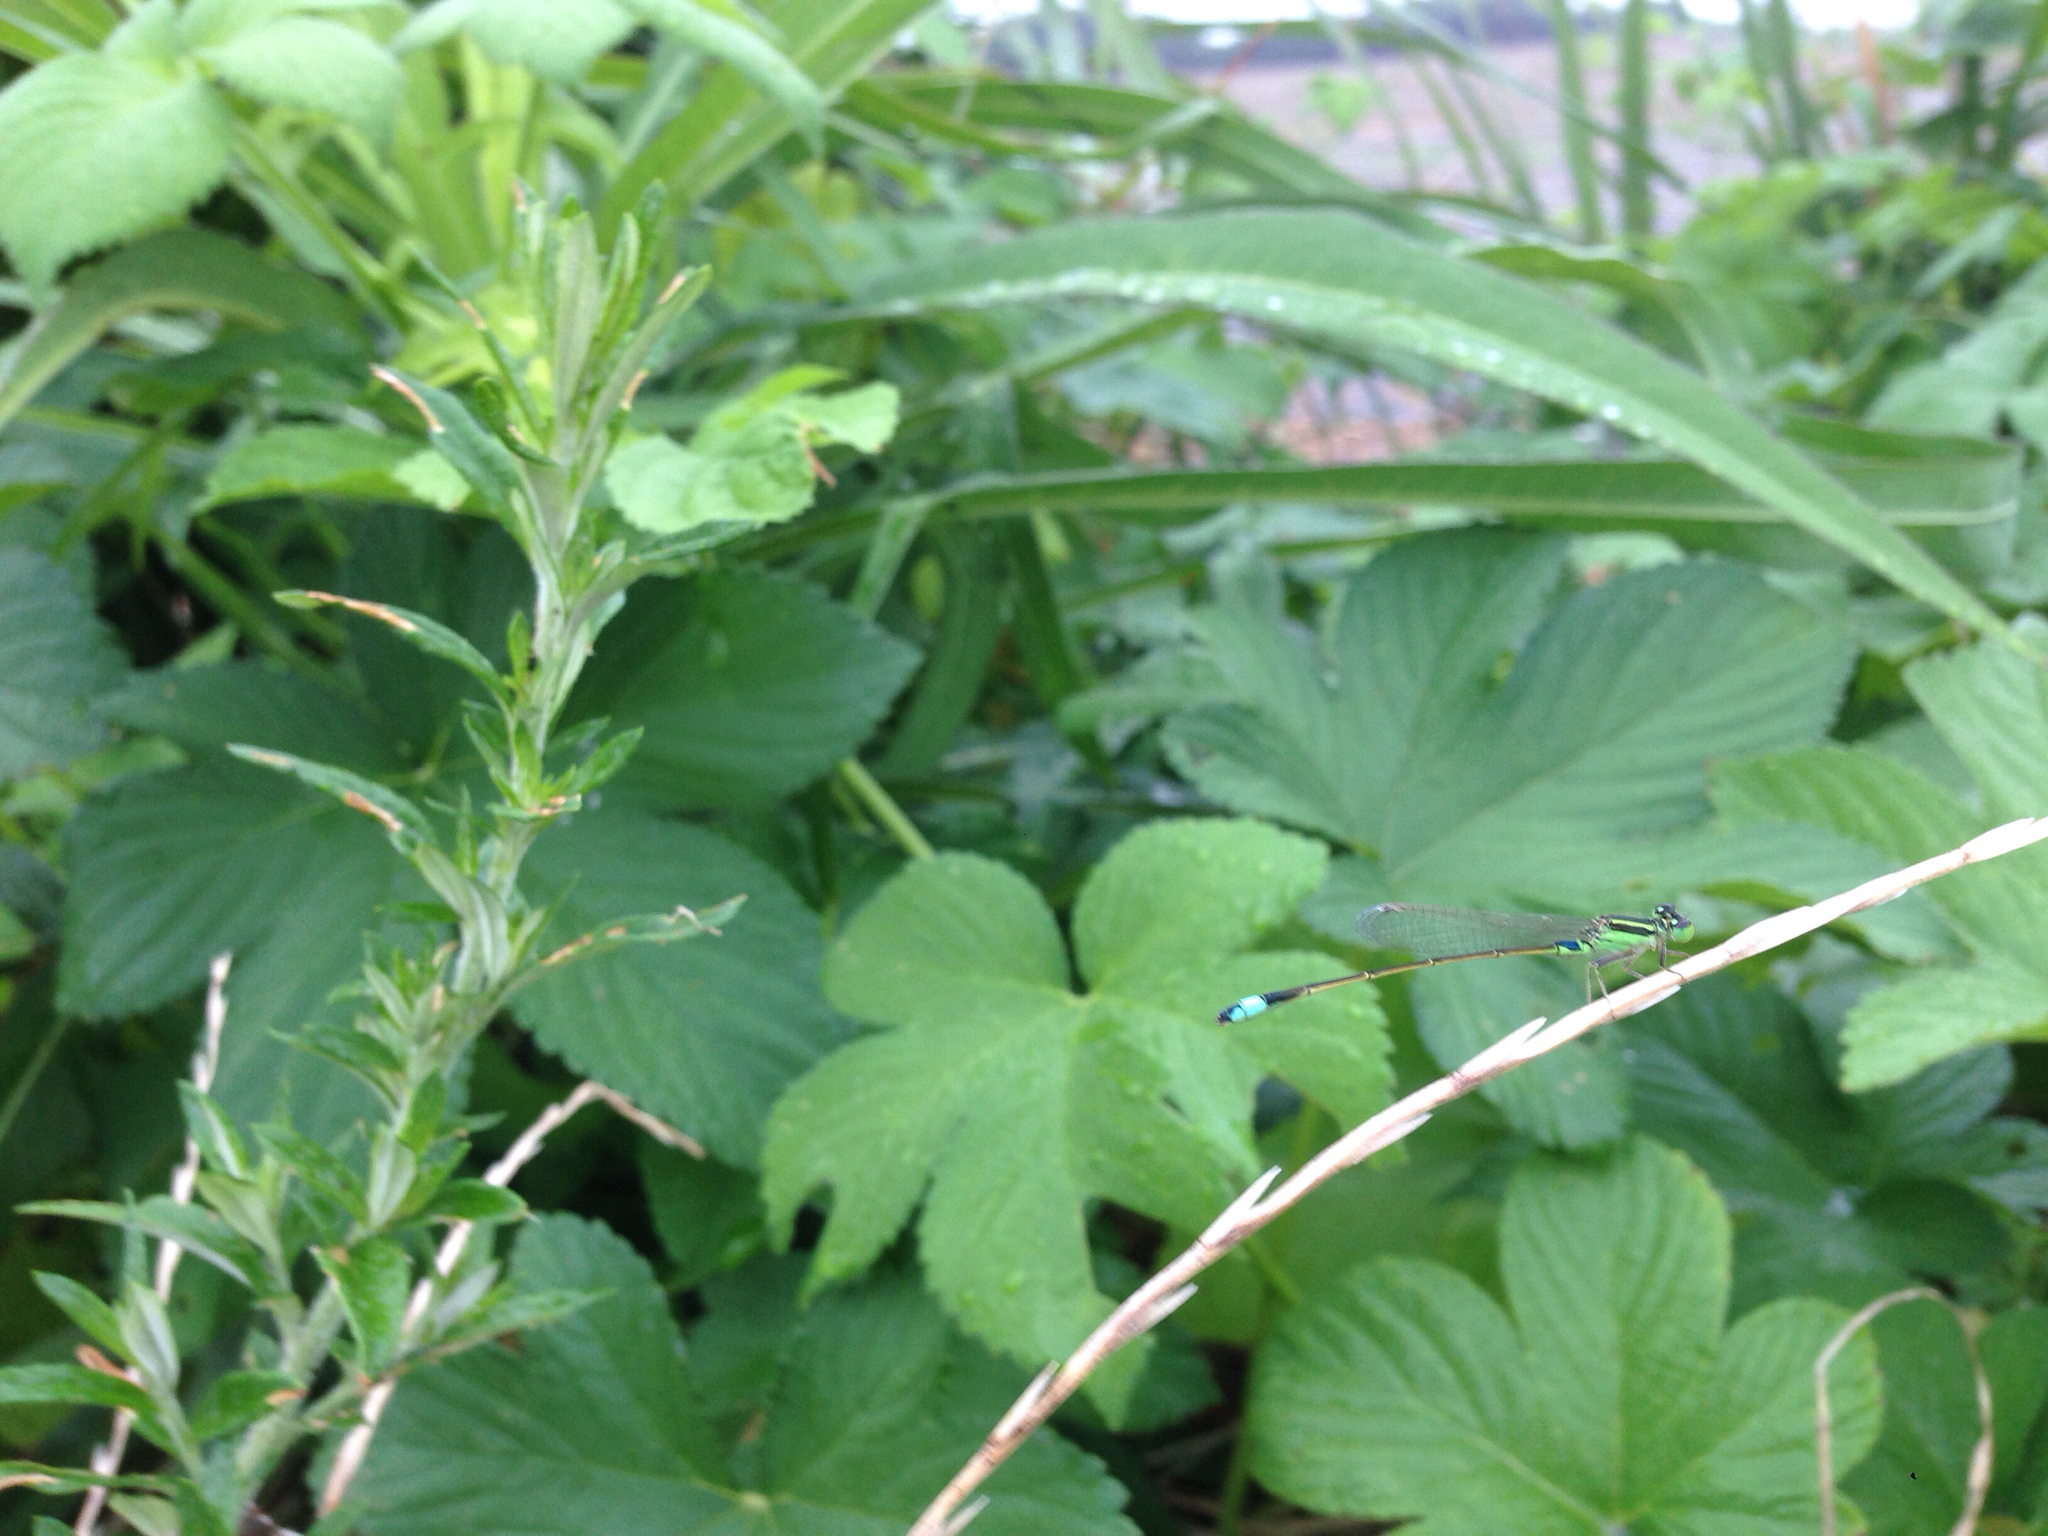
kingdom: Animalia
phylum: Arthropoda
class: Insecta
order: Odonata
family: Coenagrionidae
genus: Ischnura
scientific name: Ischnura senegalensis
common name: Tropical bluetail
